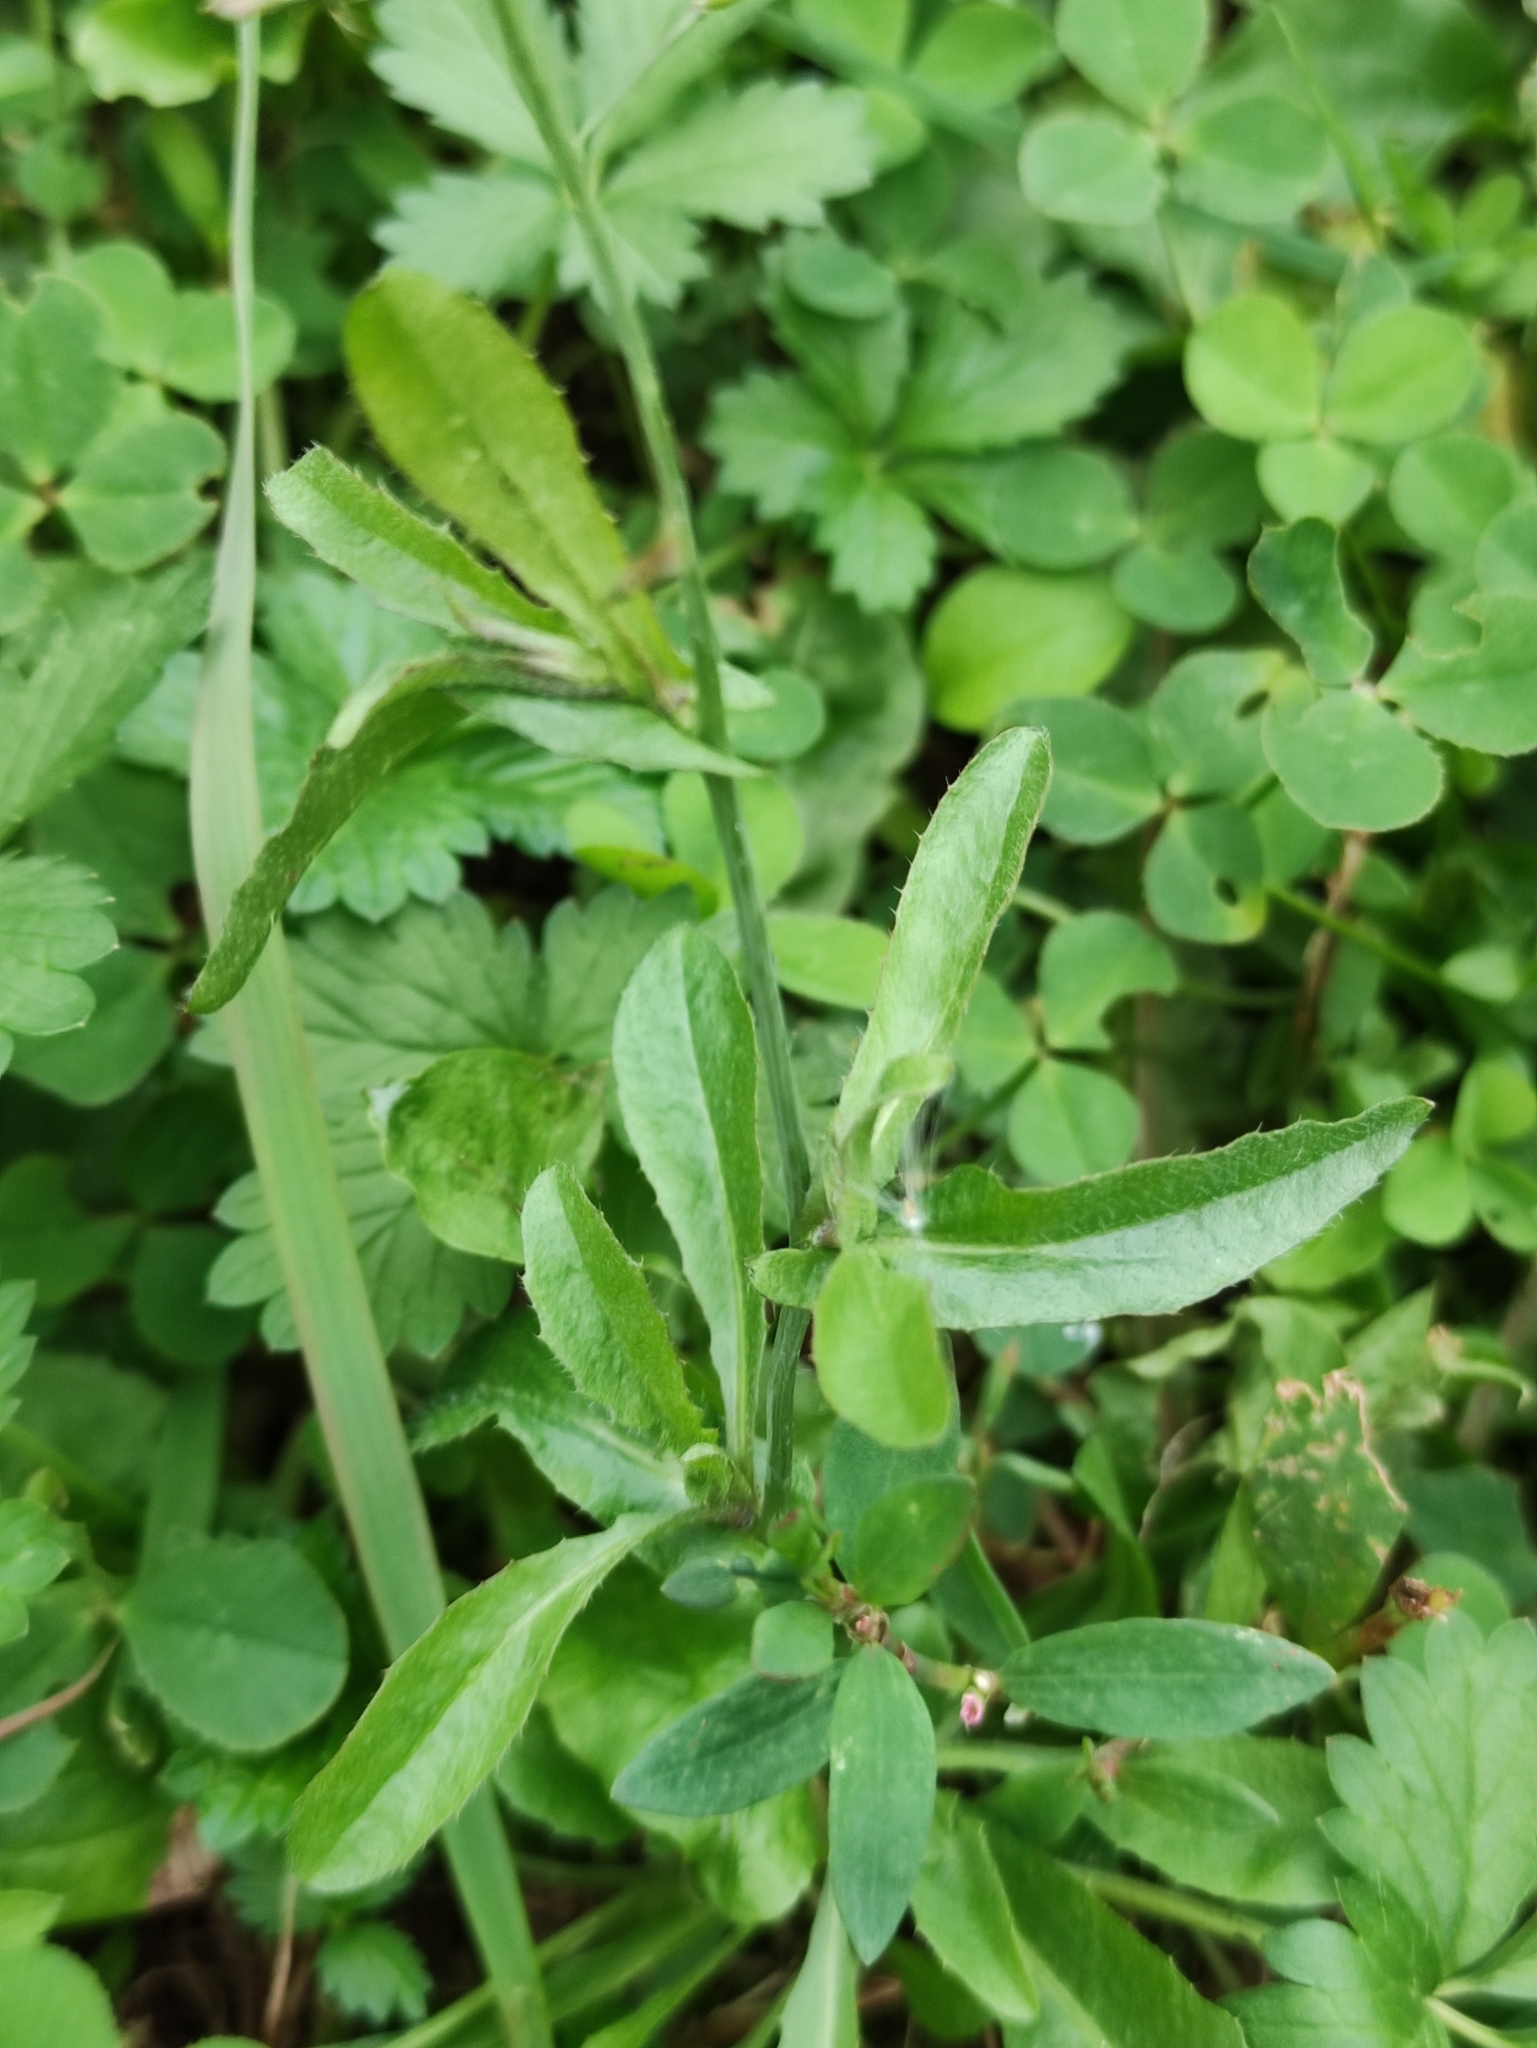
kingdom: Plantae
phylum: Tracheophyta
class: Magnoliopsida
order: Brassicales
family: Brassicaceae
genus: Capsella
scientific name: Capsella bursa-pastoris
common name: Shepherd's purse
